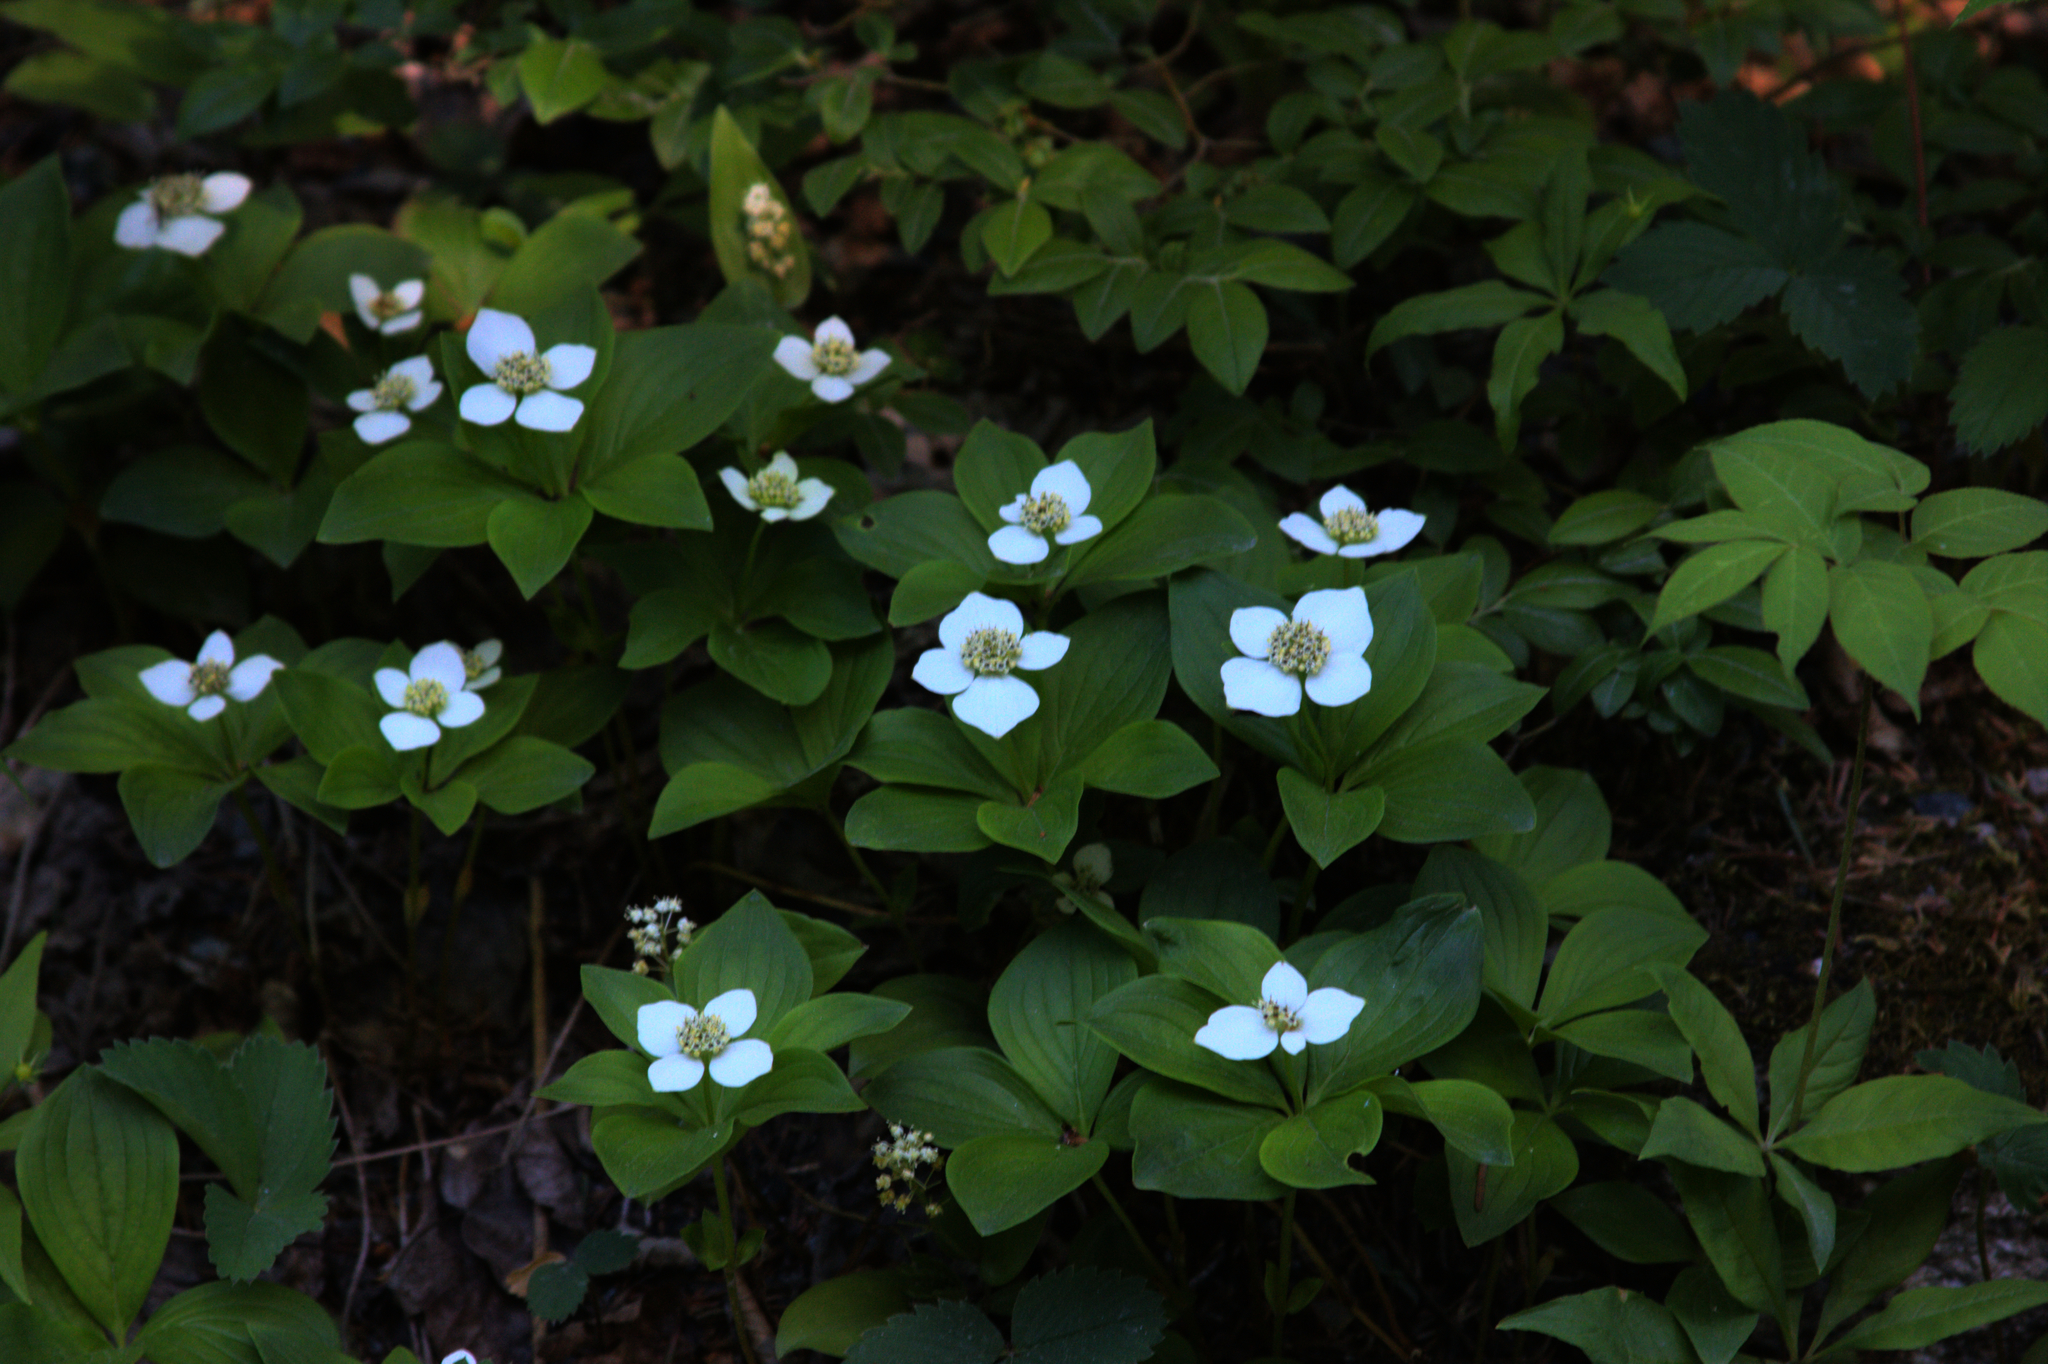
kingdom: Plantae
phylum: Tracheophyta
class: Magnoliopsida
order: Cornales
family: Cornaceae
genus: Cornus
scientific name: Cornus canadensis
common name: Creeping dogwood
